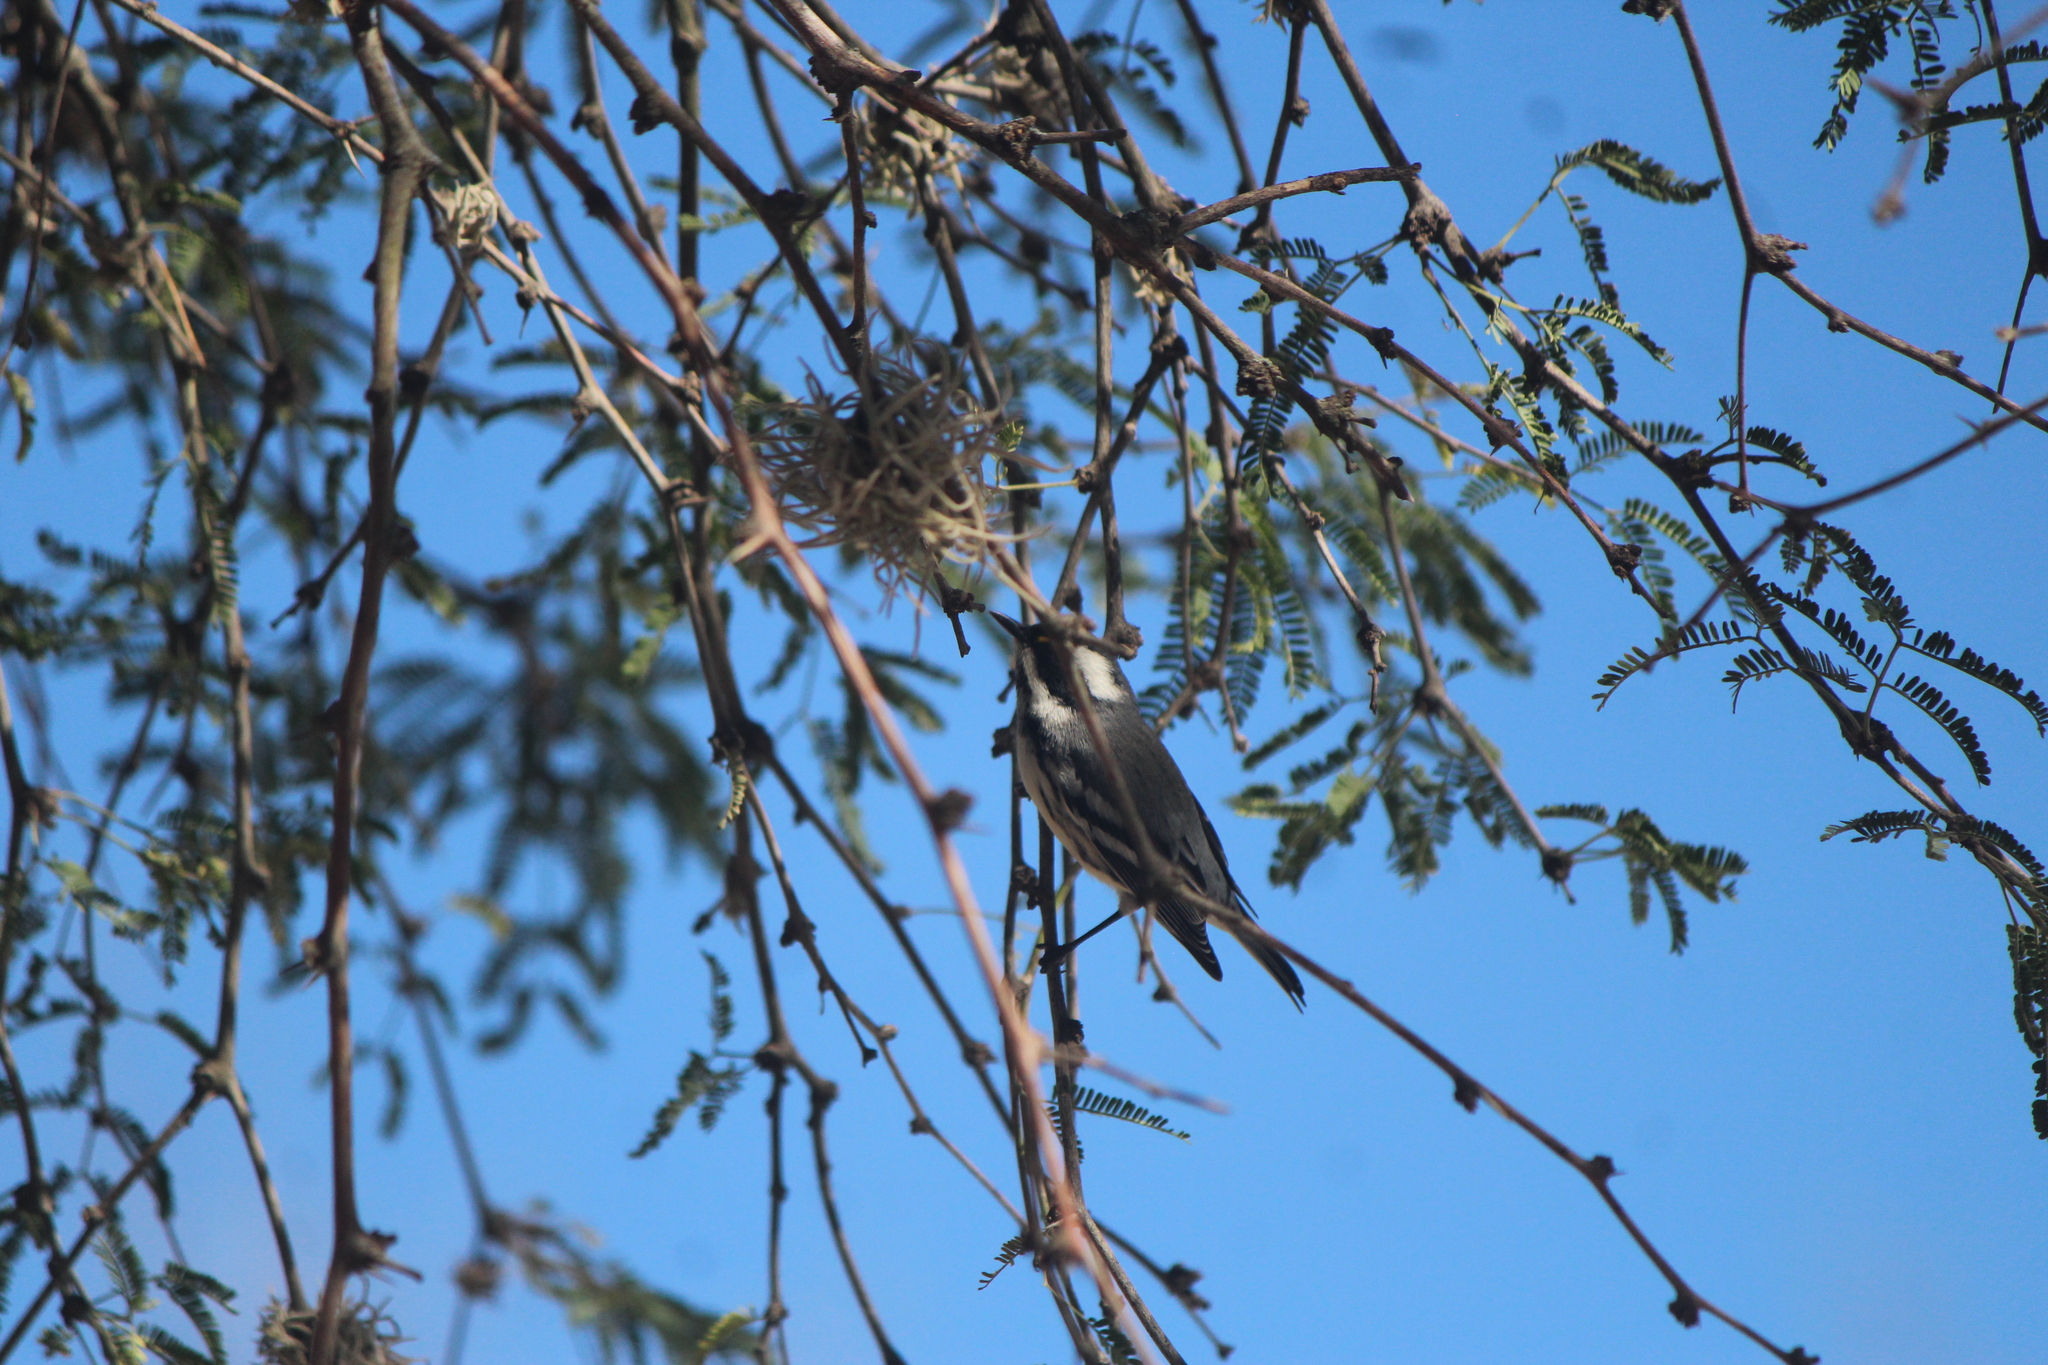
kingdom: Animalia
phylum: Chordata
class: Aves
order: Passeriformes
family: Parulidae
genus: Setophaga
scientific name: Setophaga nigrescens
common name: Black-throated gray warbler
